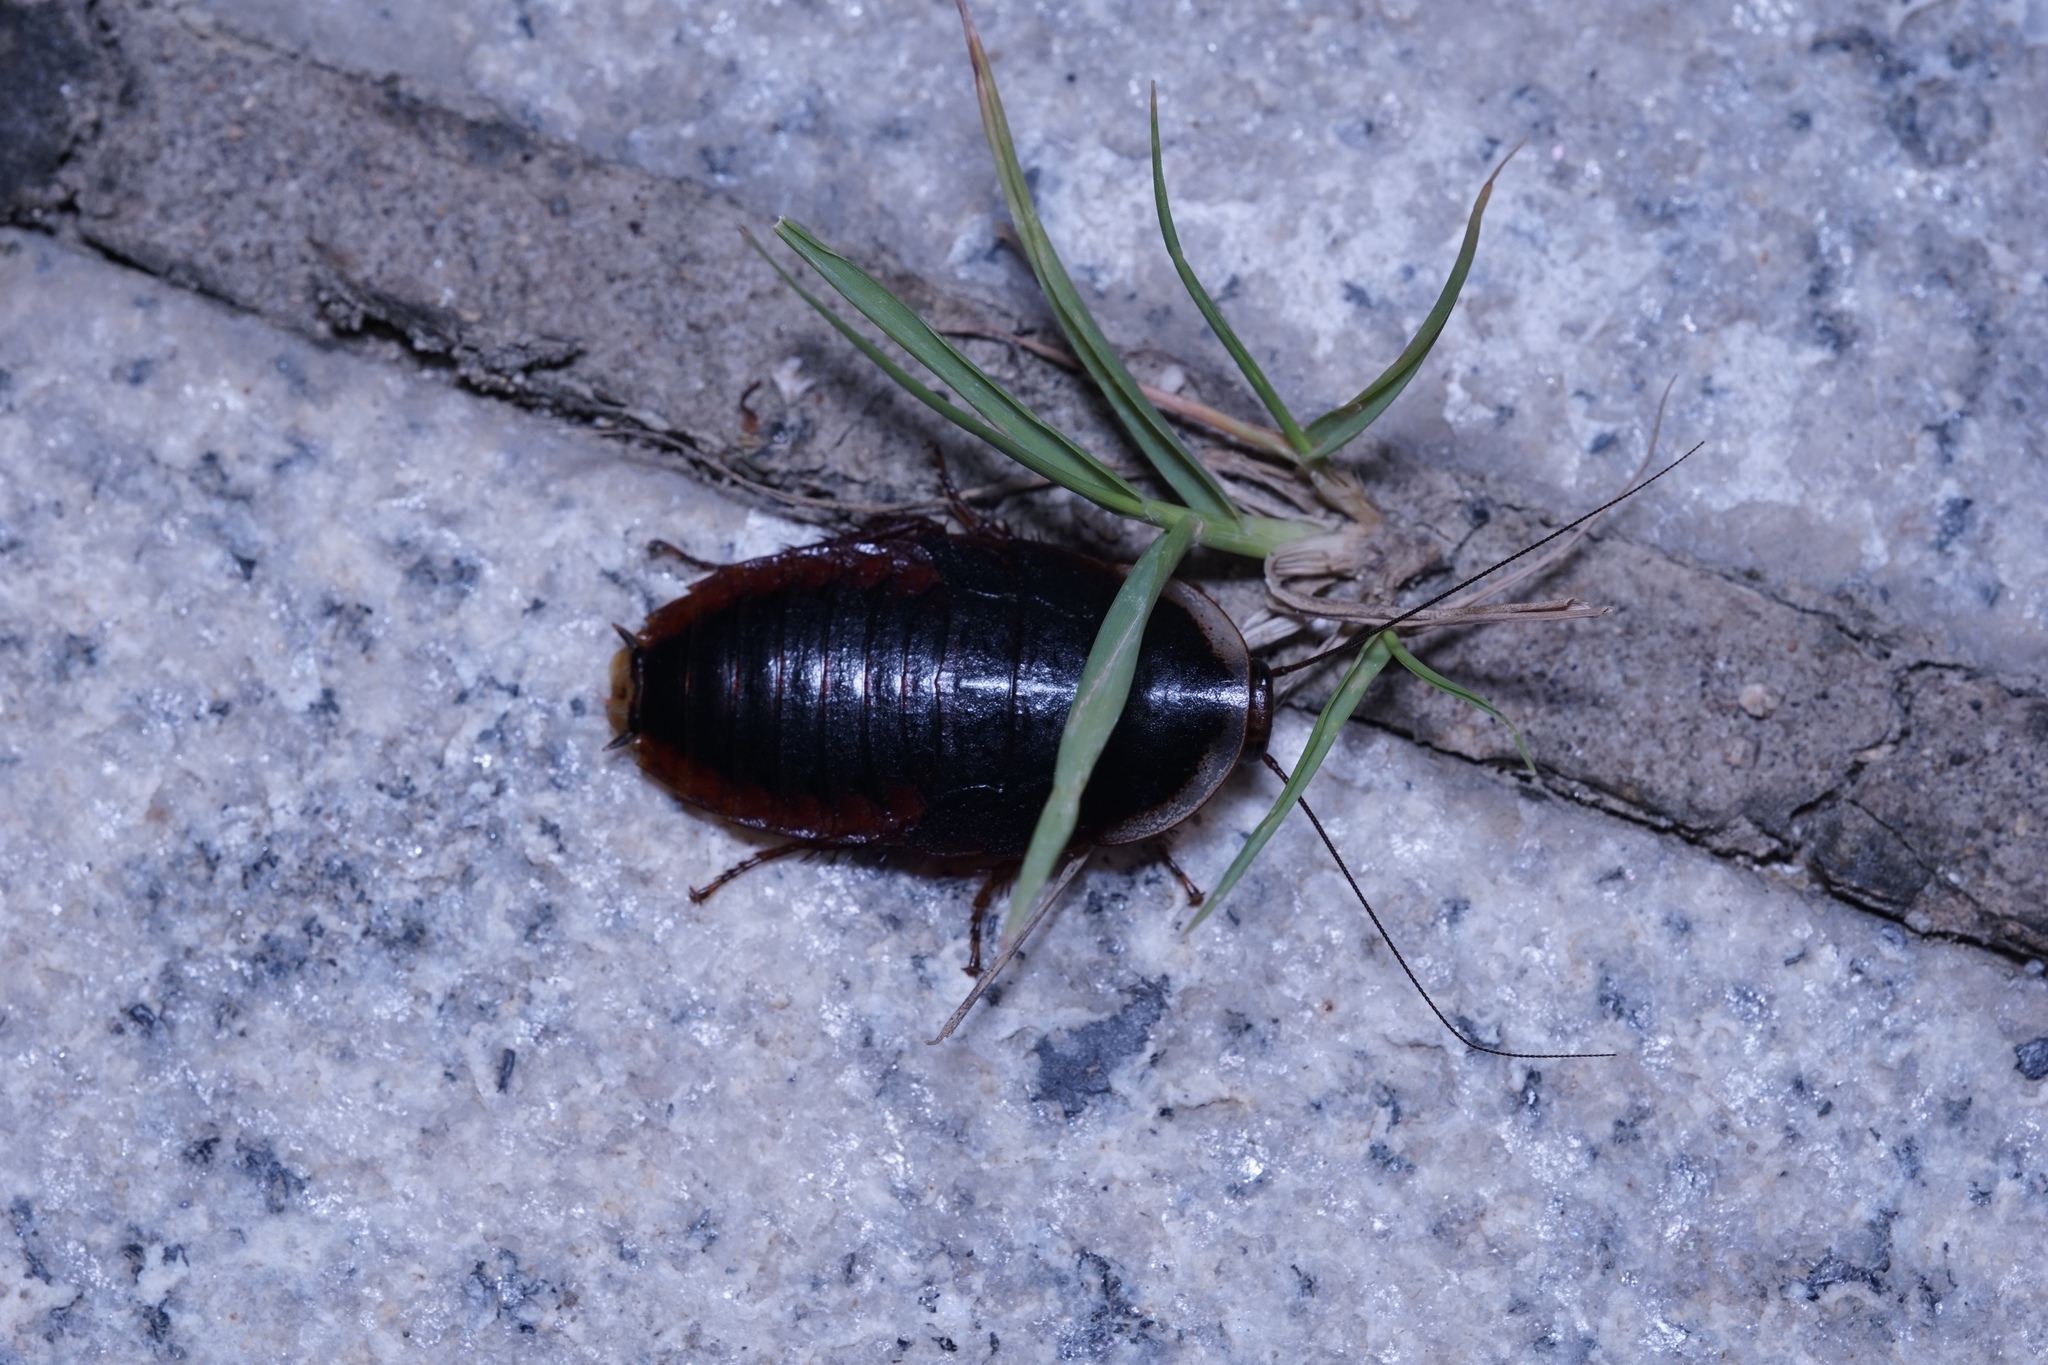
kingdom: Animalia
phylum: Arthropoda
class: Insecta
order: Blattodea
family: Blaberidae
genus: Opisthoplatia
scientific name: Opisthoplatia orientalis
